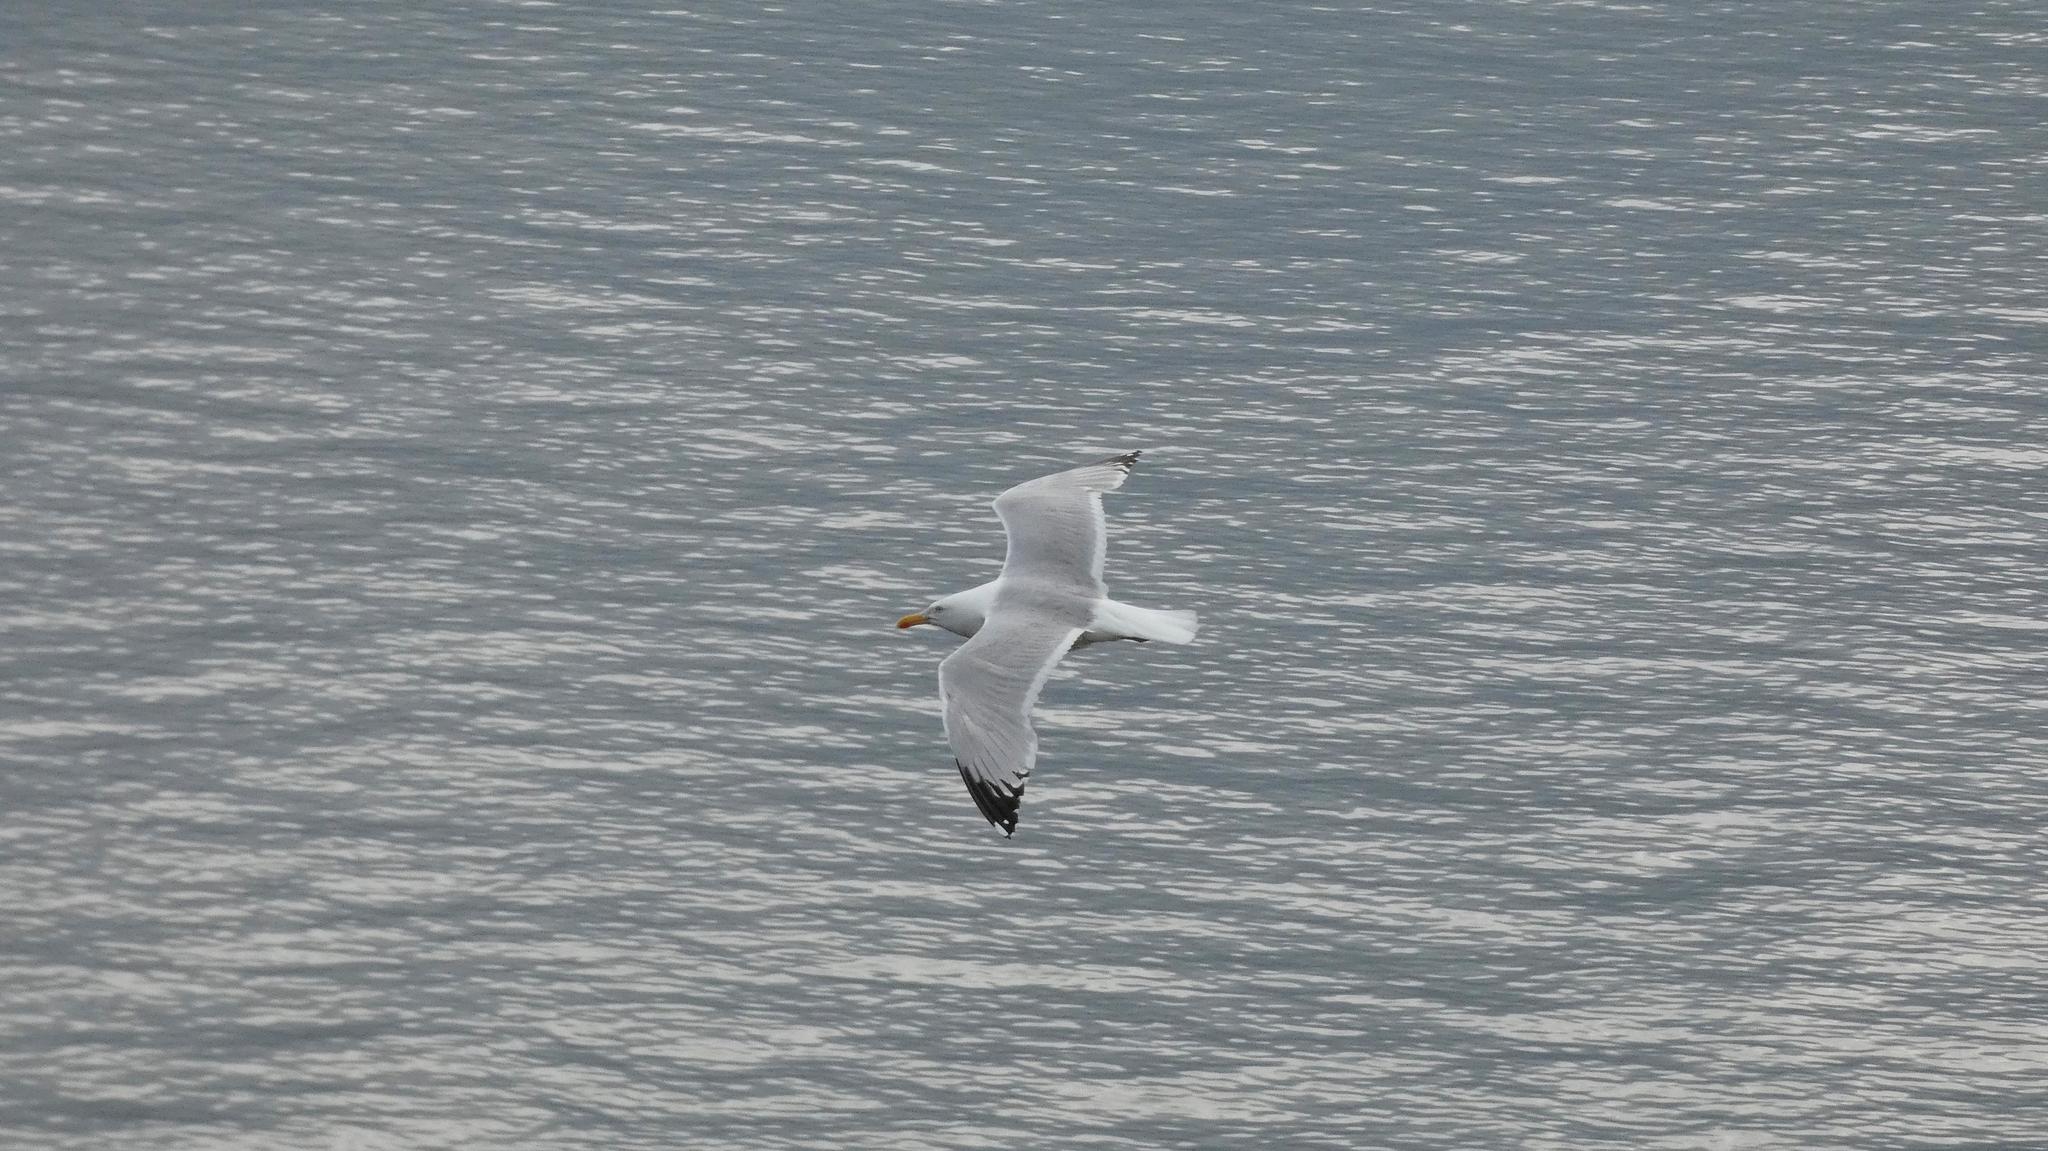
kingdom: Animalia
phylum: Chordata
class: Aves
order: Charadriiformes
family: Laridae
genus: Larus
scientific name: Larus argentatus
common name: Herring gull
